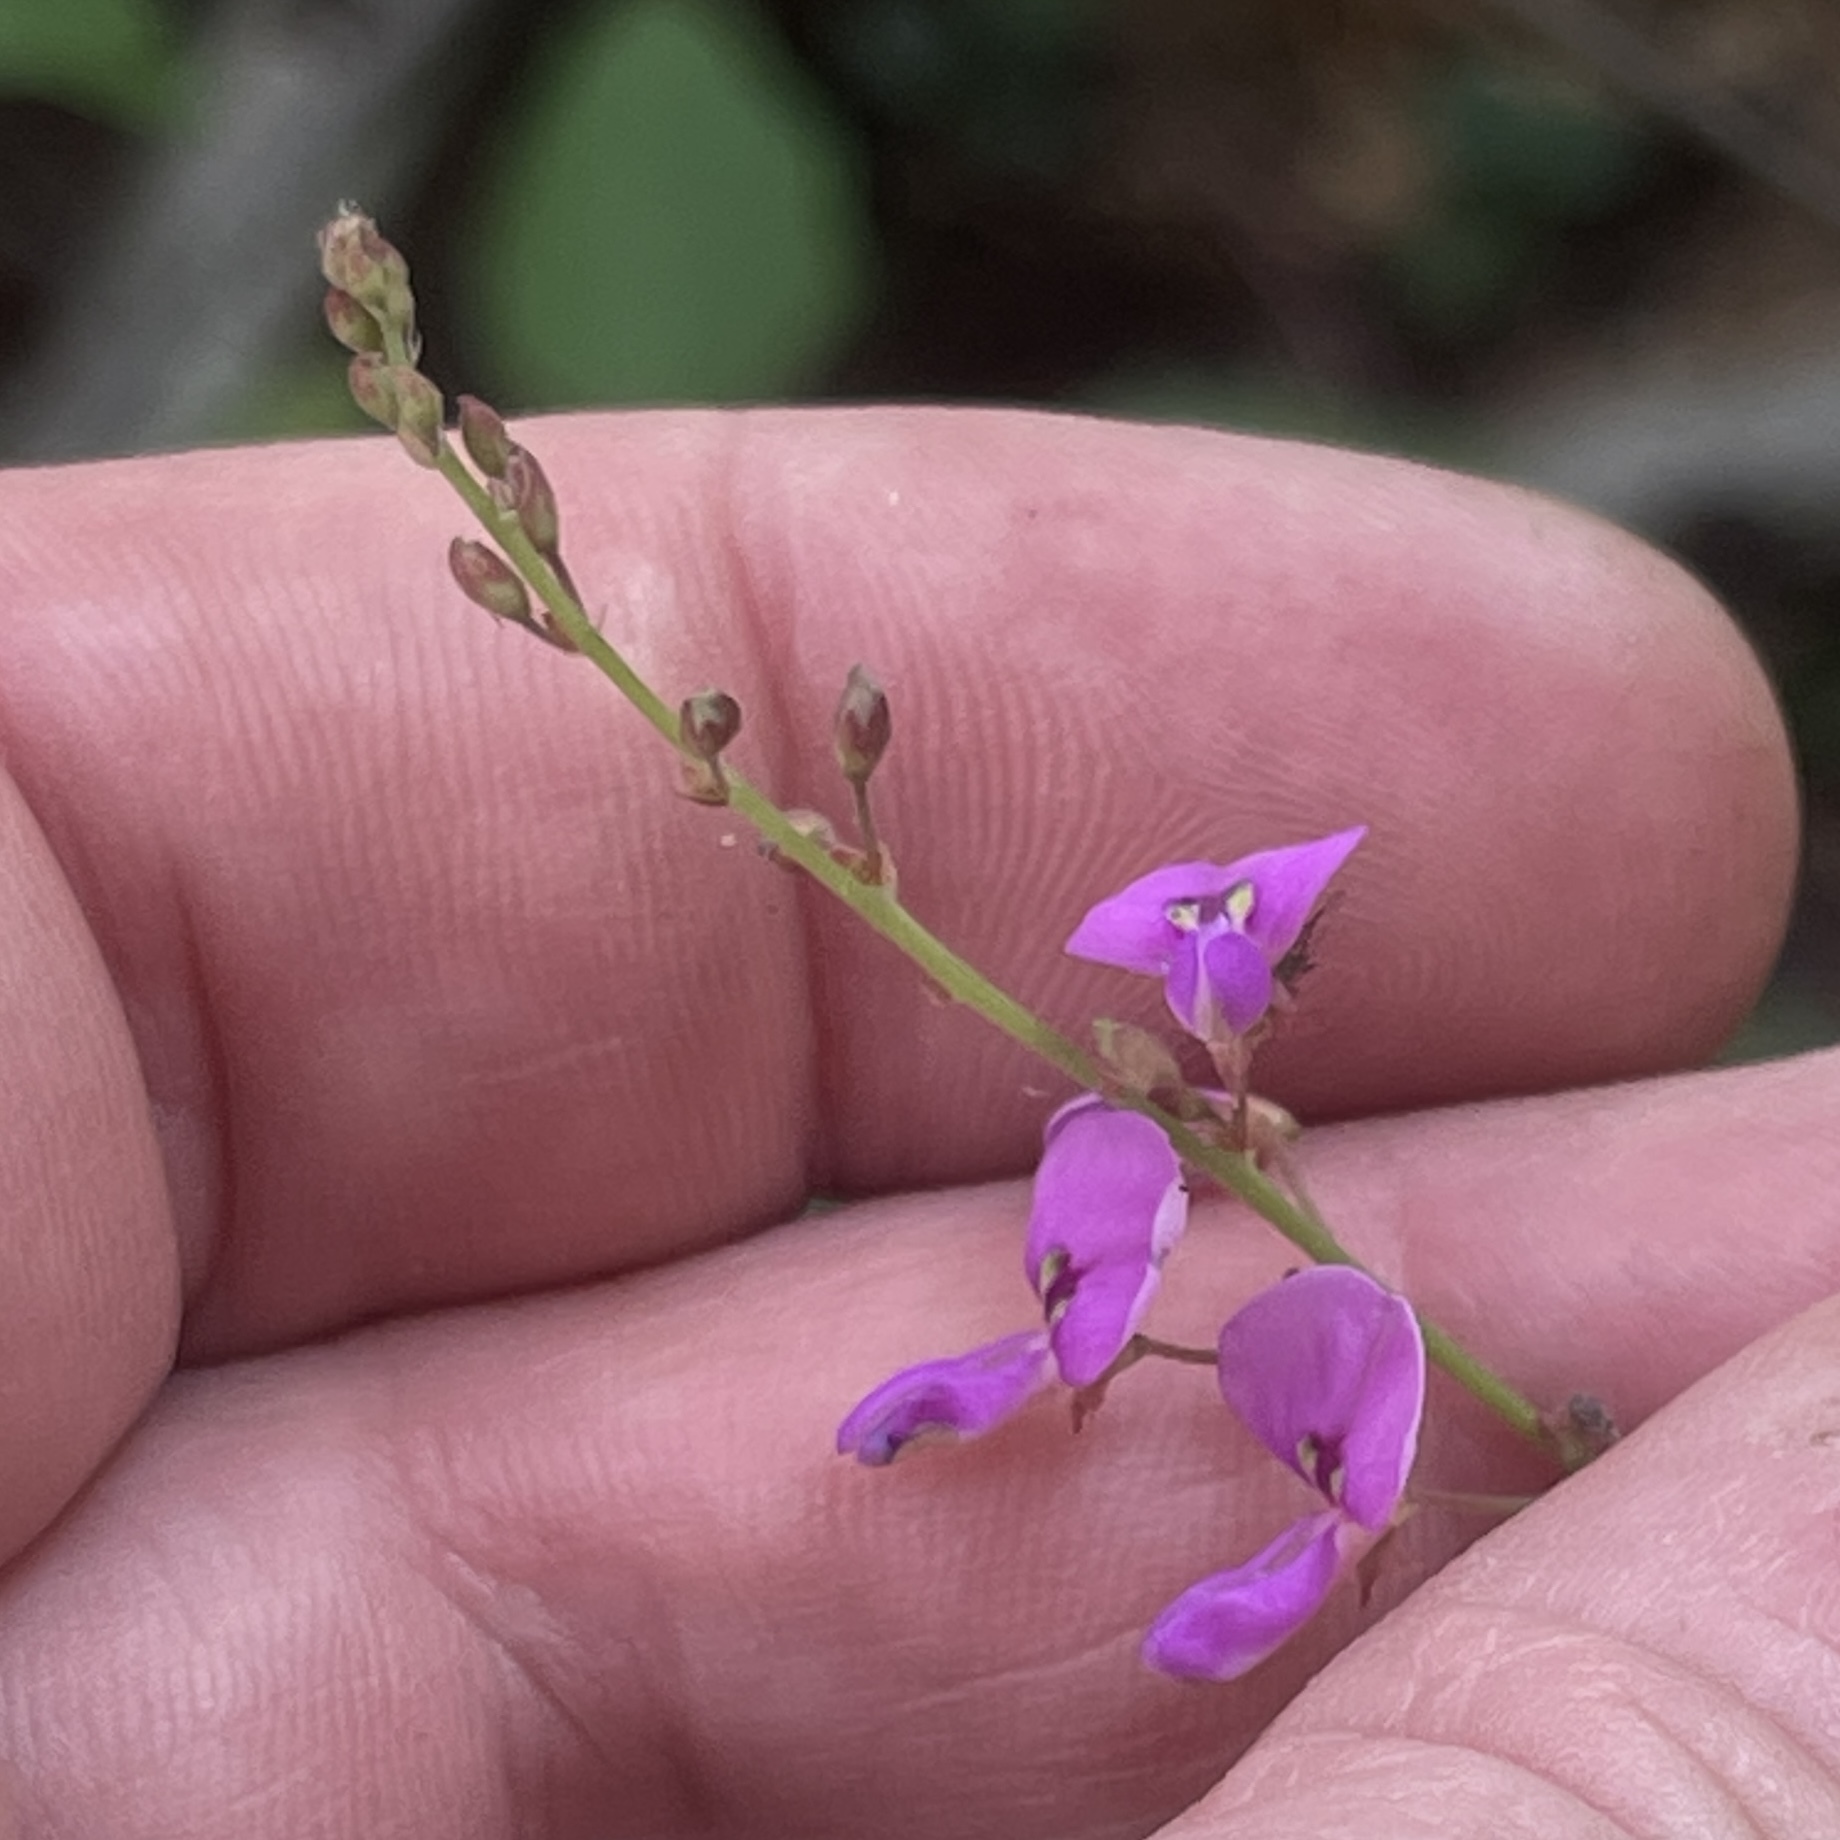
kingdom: Plantae
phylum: Tracheophyta
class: Magnoliopsida
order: Fabales
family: Fabaceae
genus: Desmodium
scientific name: Desmodium paniculatum
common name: Panicled tick-clover
